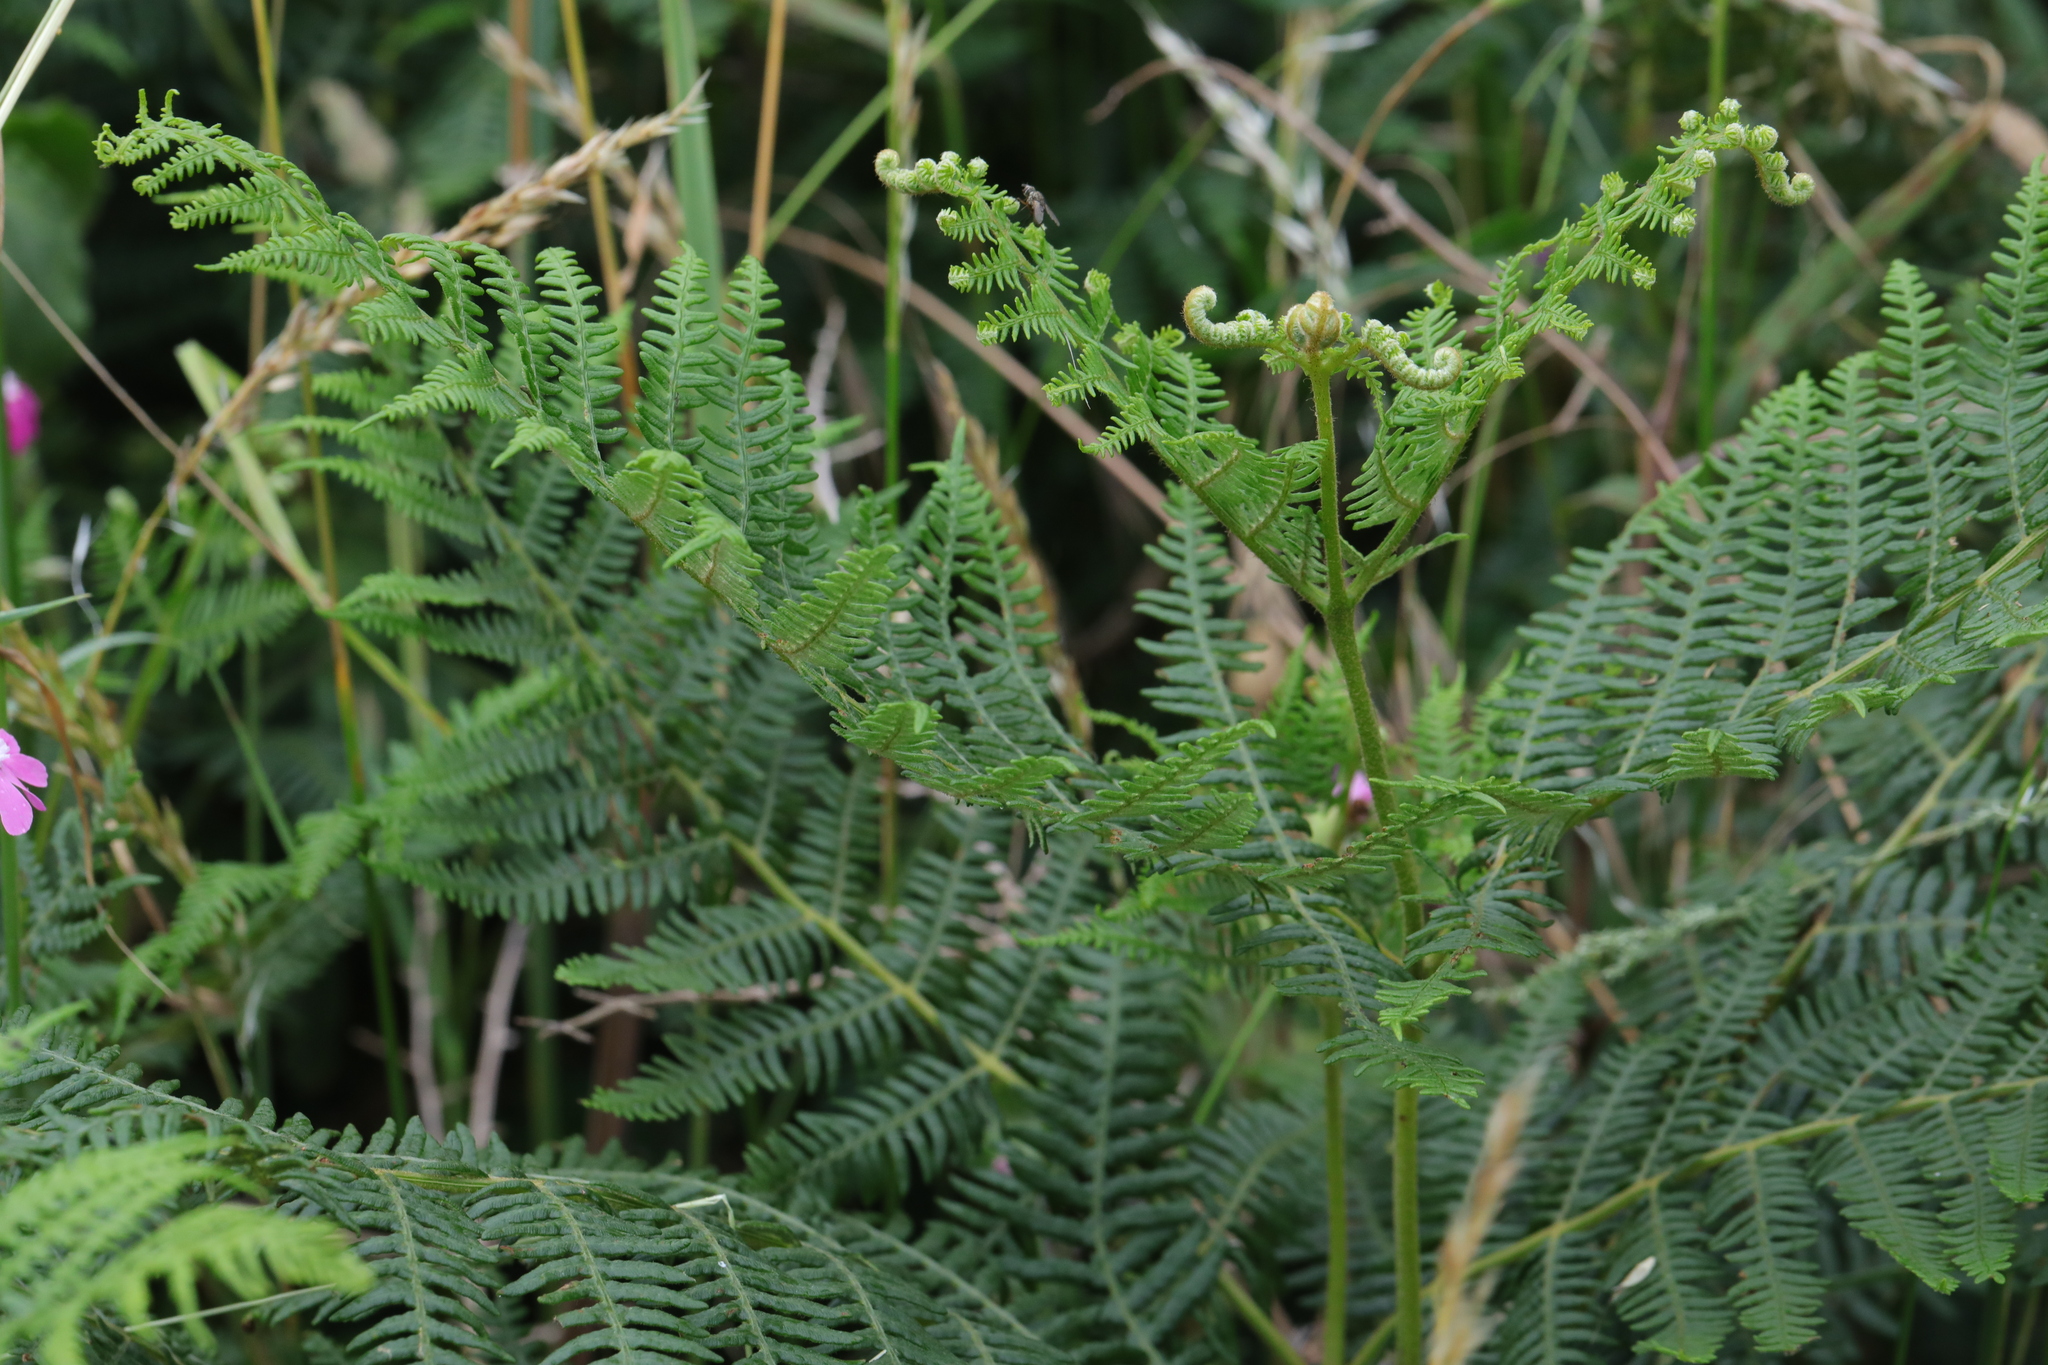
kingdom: Plantae
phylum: Tracheophyta
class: Polypodiopsida
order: Polypodiales
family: Dennstaedtiaceae
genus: Pteridium
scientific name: Pteridium aquilinum
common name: Bracken
